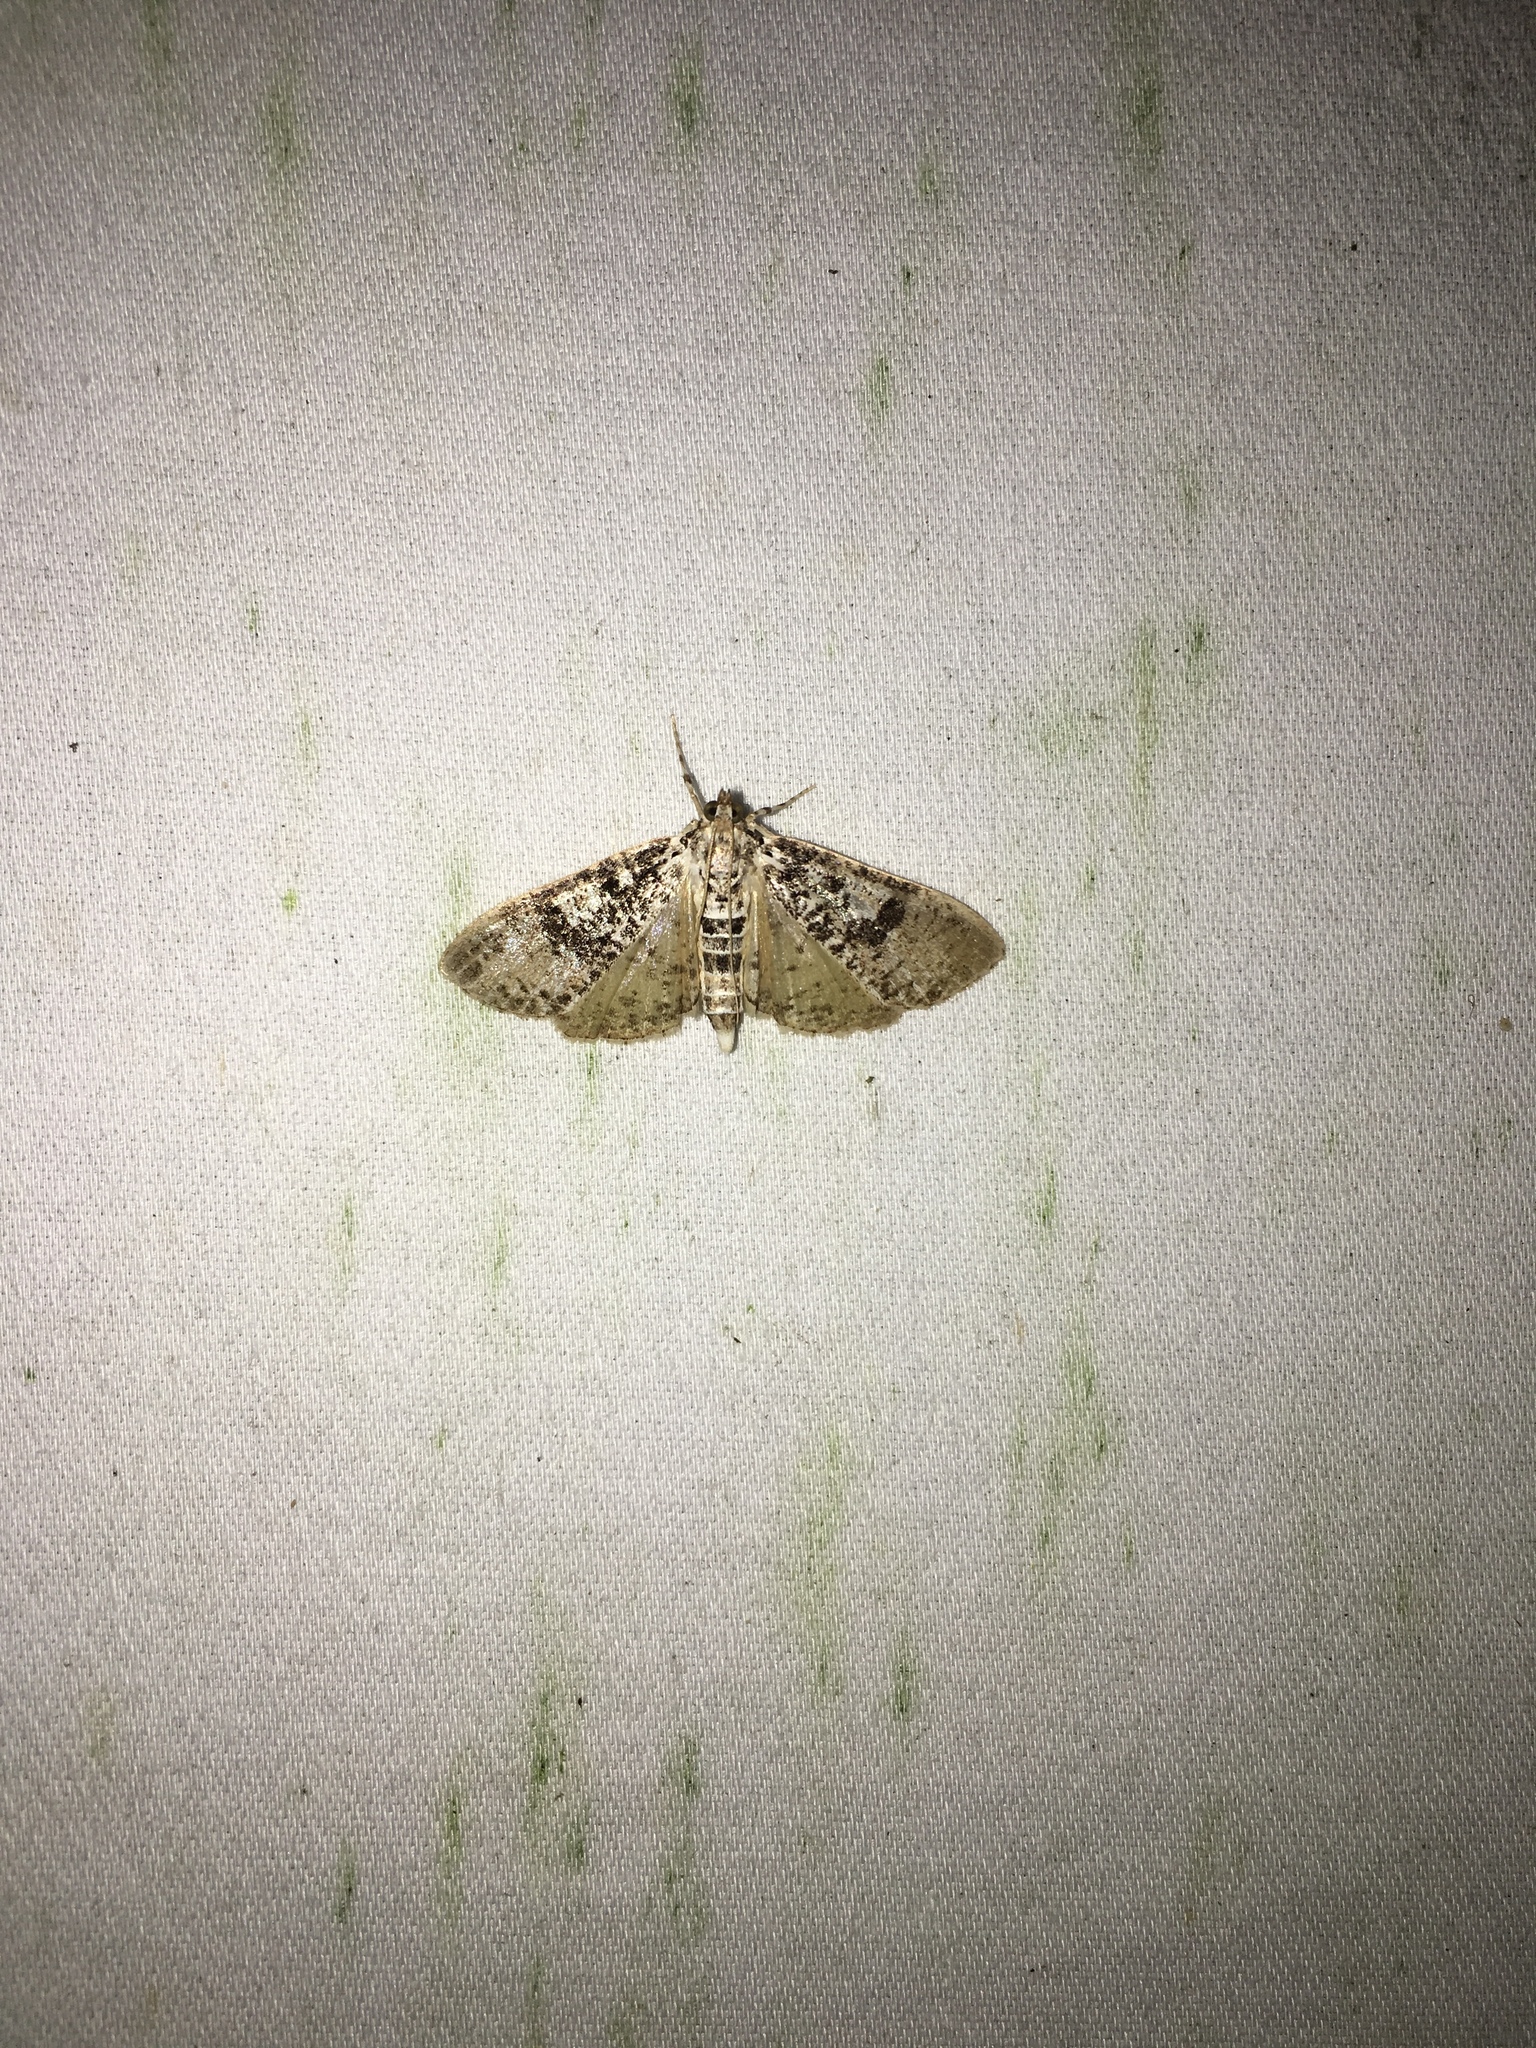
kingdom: Animalia
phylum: Arthropoda
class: Insecta
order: Lepidoptera
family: Crambidae
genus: Palpita
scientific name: Palpita magniferalis
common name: Splendid palpita moth
